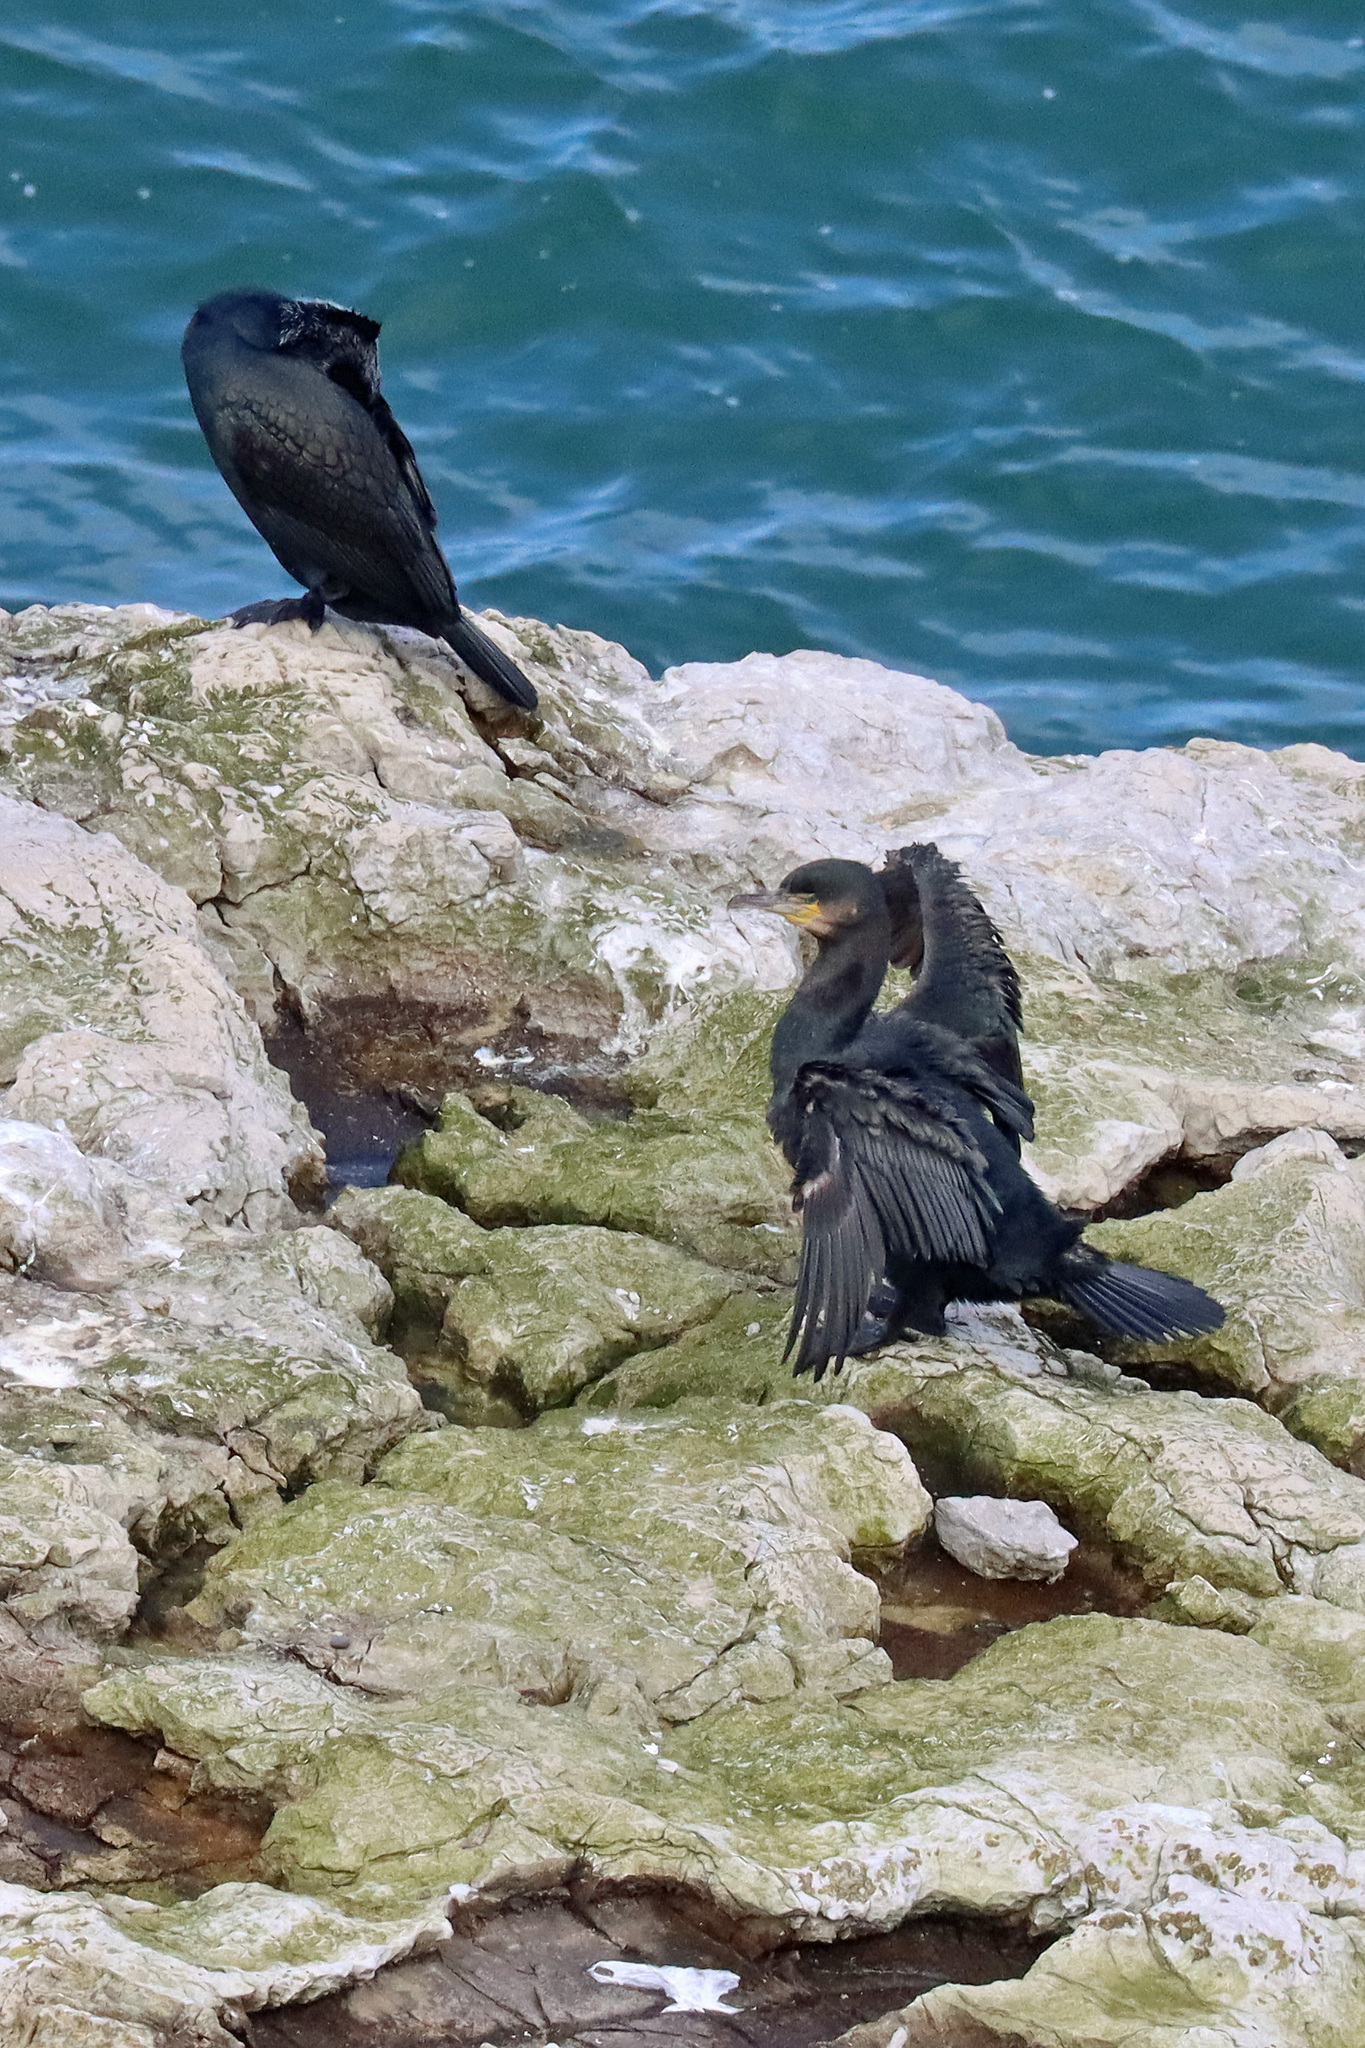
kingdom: Animalia
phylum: Chordata
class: Aves
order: Suliformes
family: Phalacrocoracidae
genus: Phalacrocorax
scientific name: Phalacrocorax carbo
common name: Great cormorant
